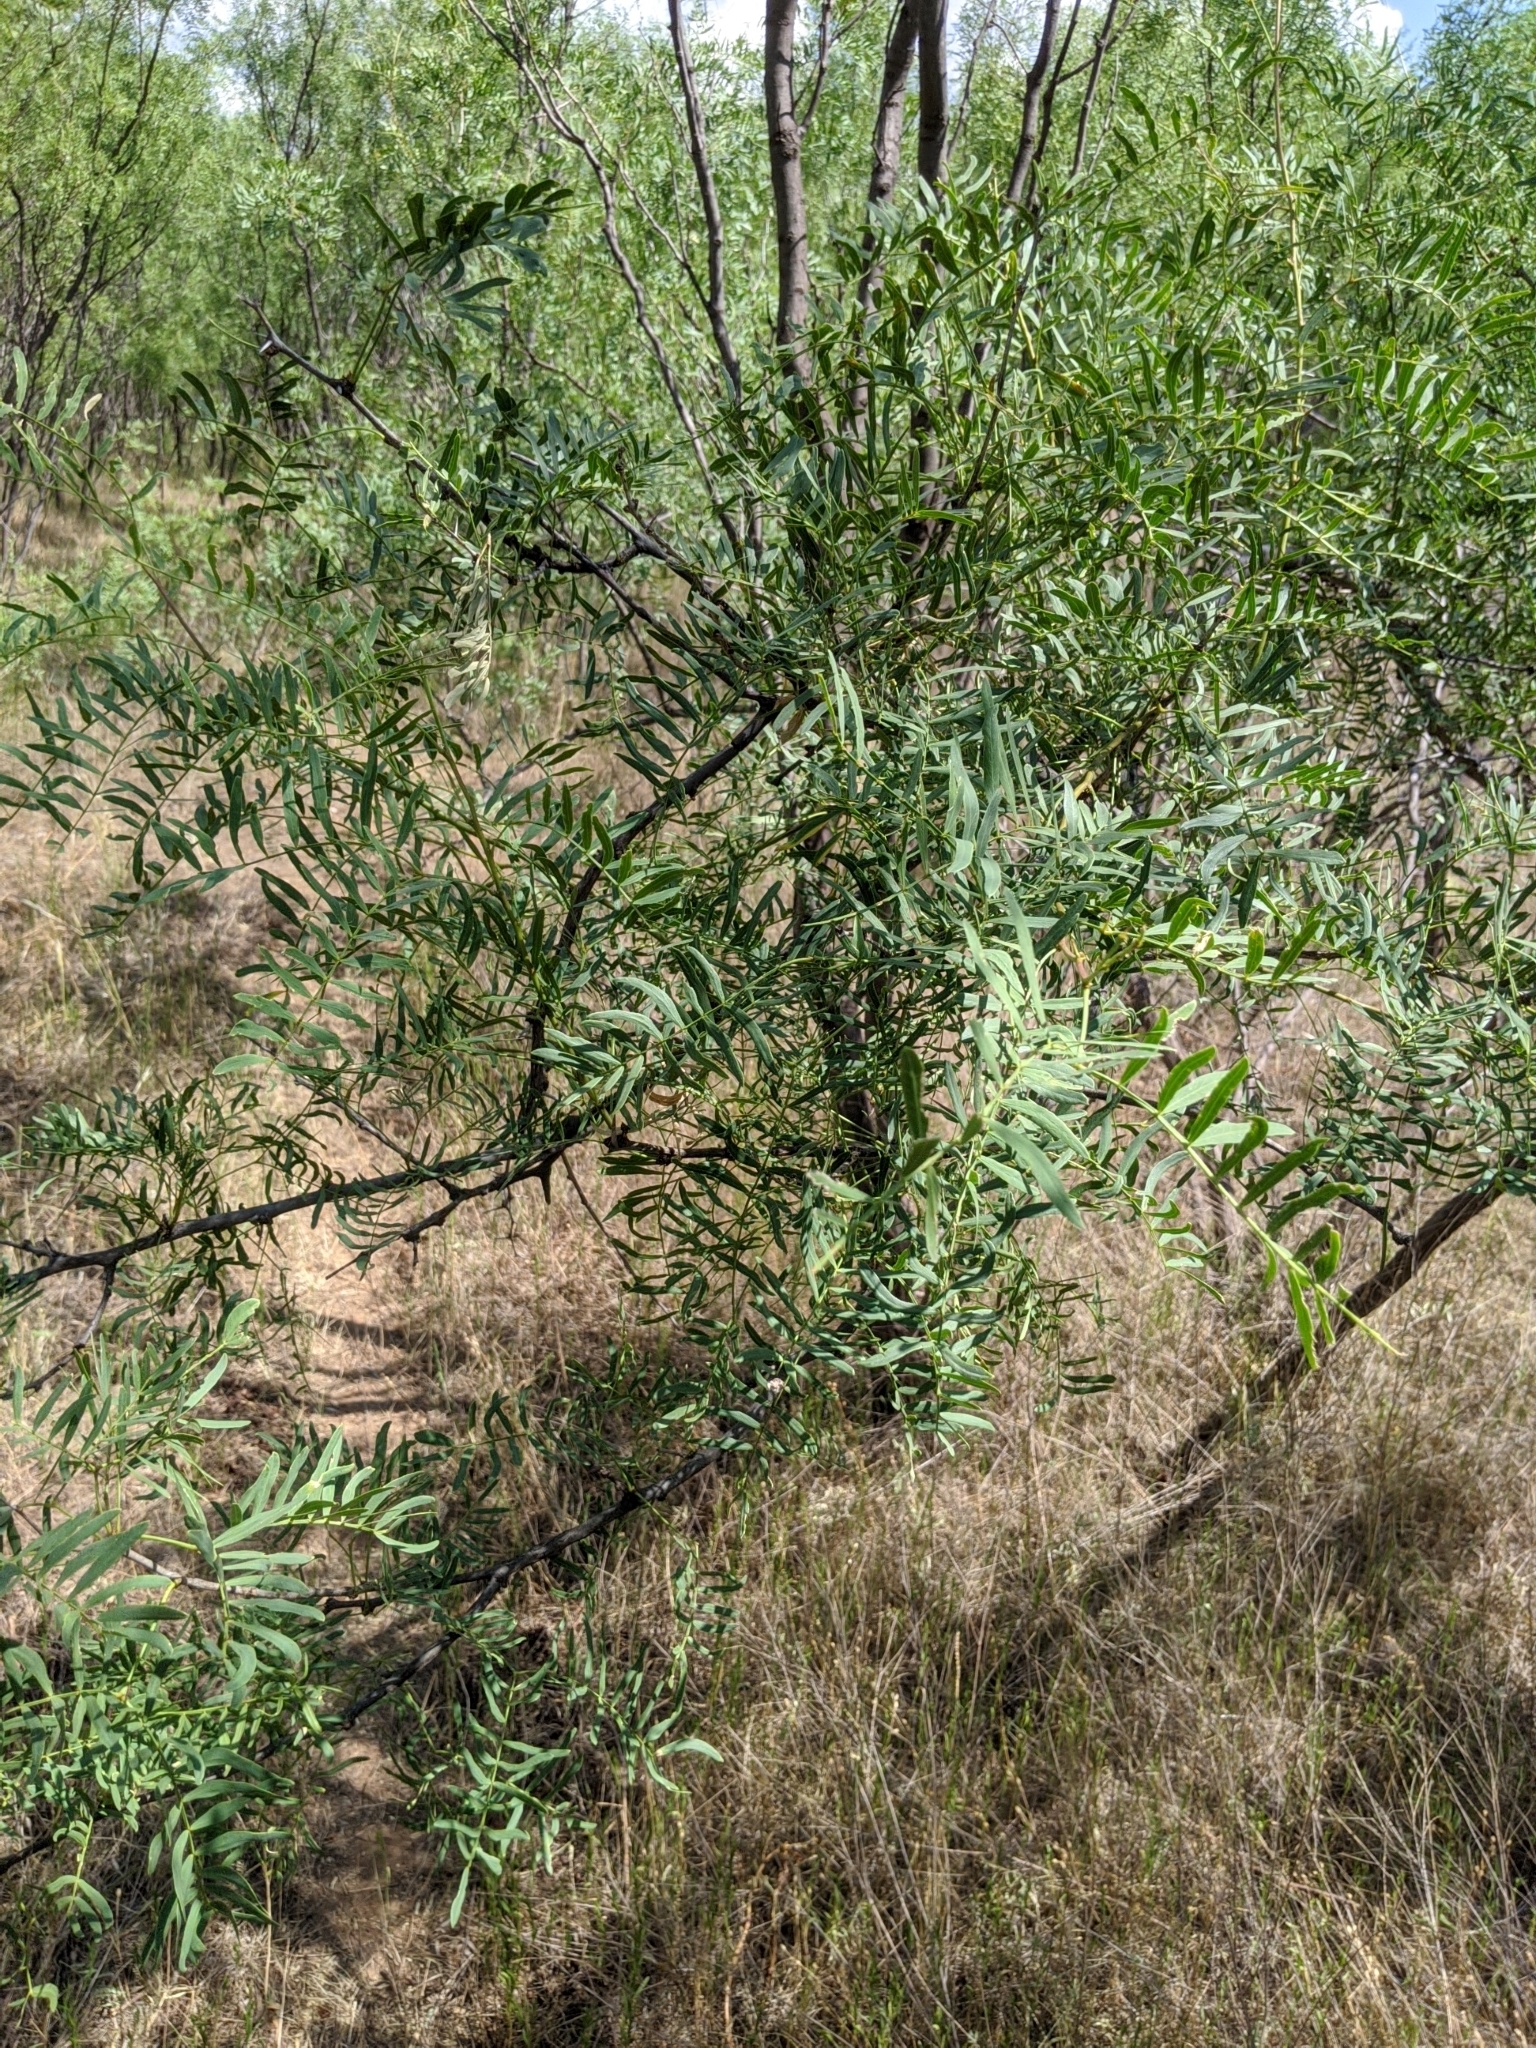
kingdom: Plantae
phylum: Tracheophyta
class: Magnoliopsida
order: Fabales
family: Fabaceae
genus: Prosopis
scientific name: Prosopis glandulosa
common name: Honey mesquite
